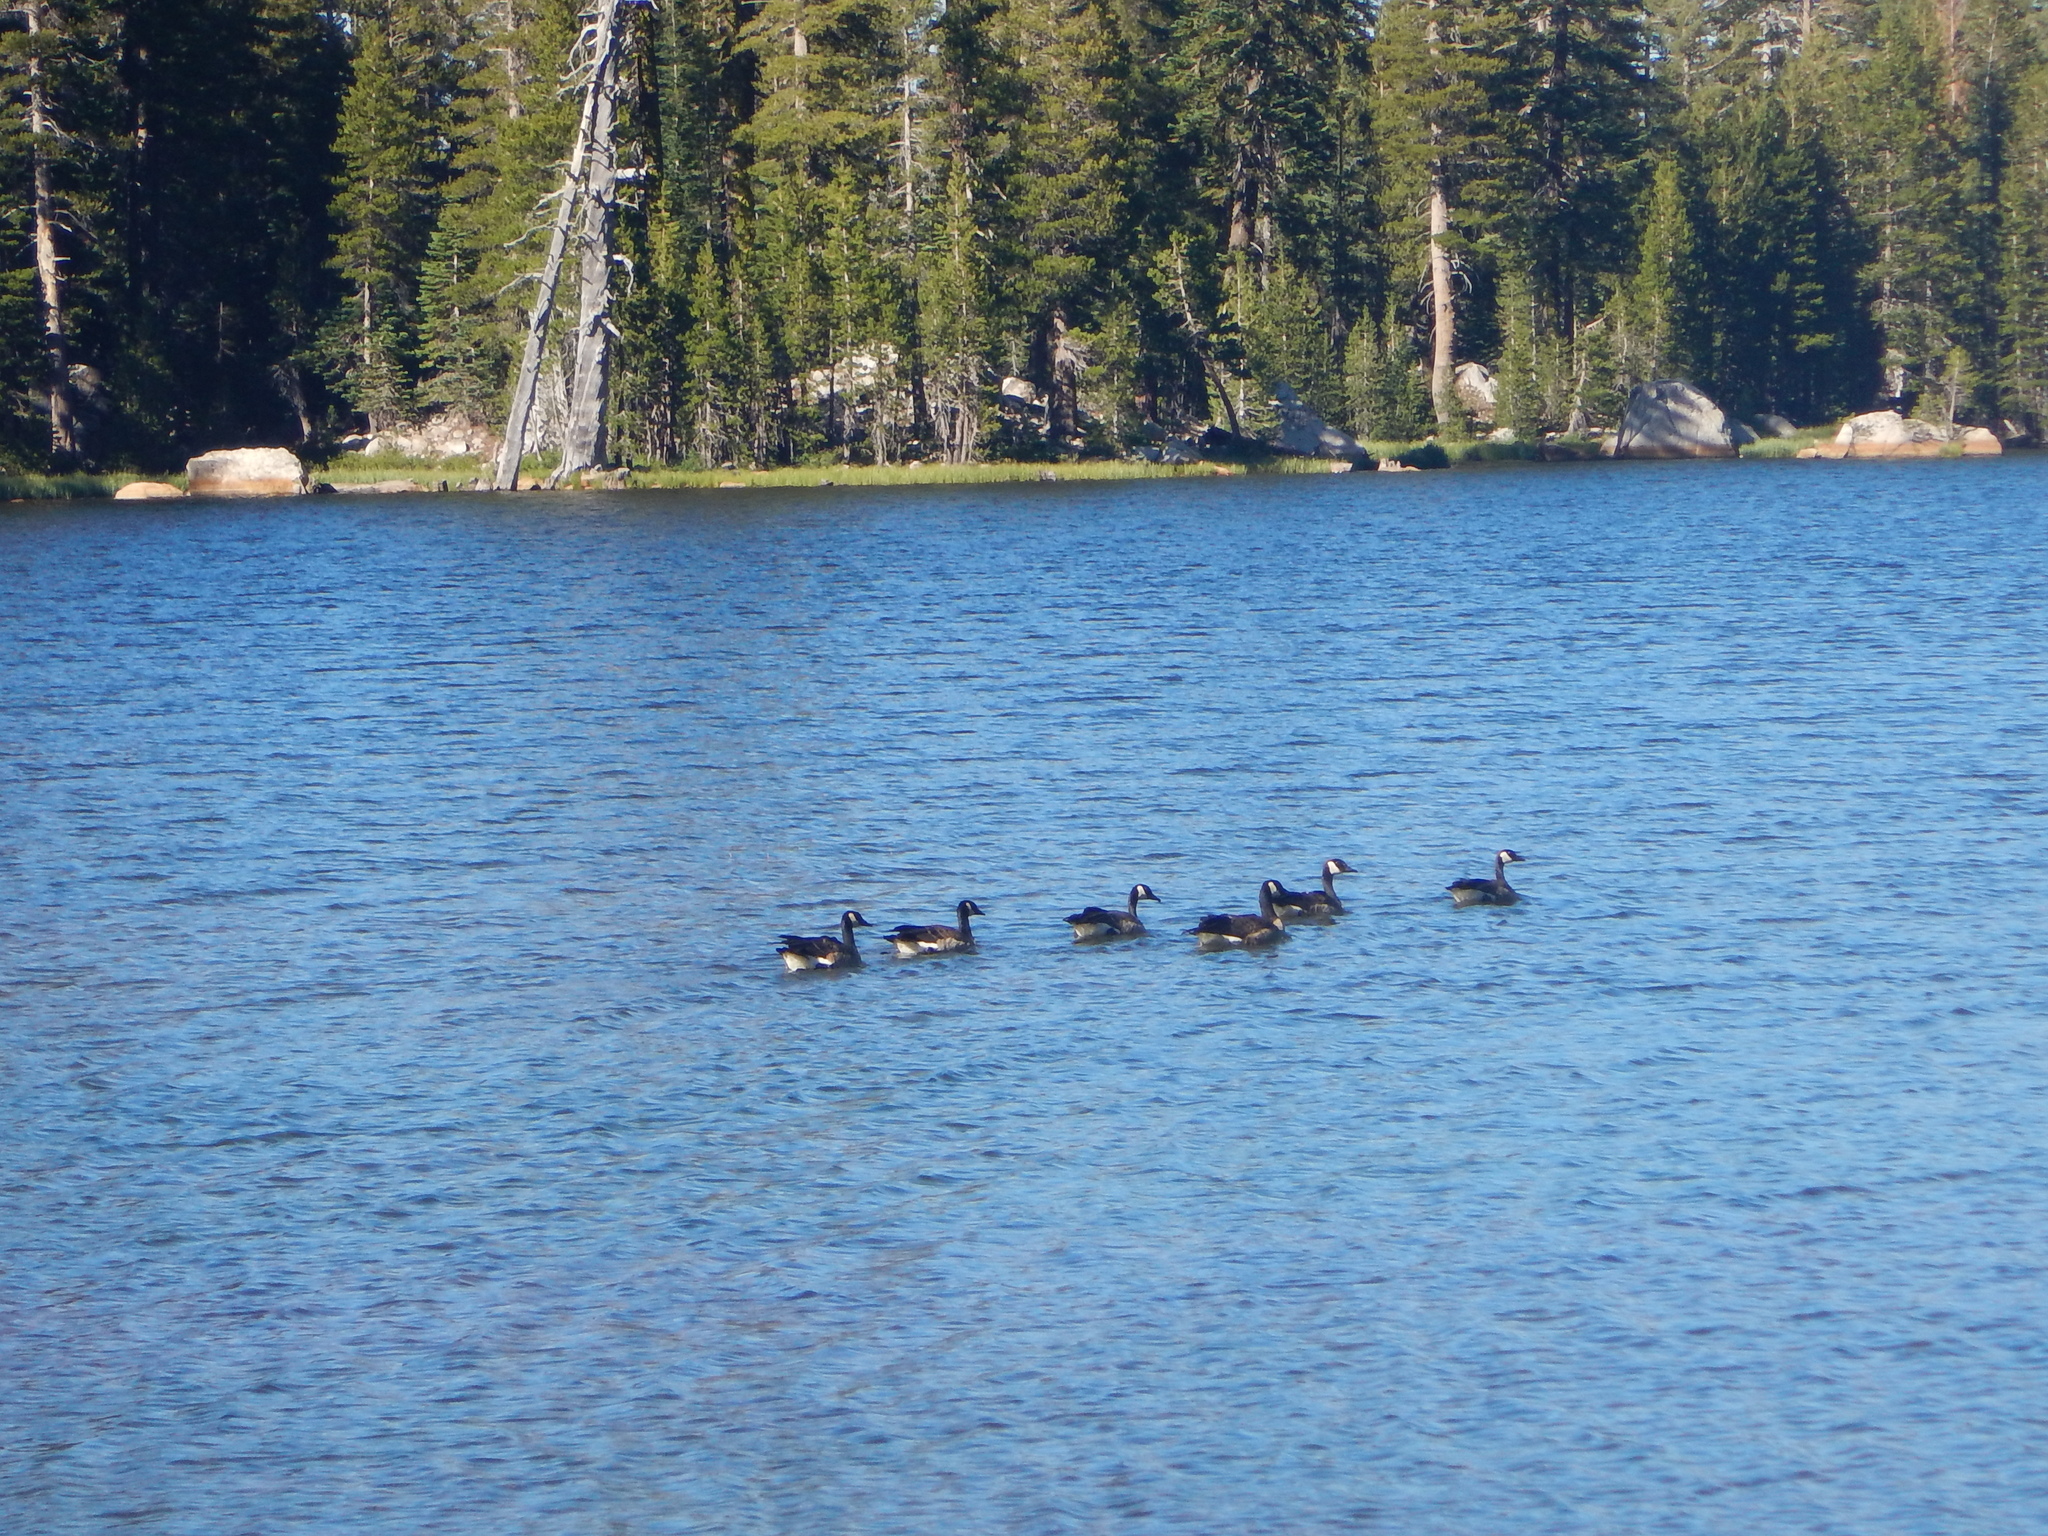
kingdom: Animalia
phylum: Chordata
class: Aves
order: Anseriformes
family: Anatidae
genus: Branta
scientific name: Branta canadensis
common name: Canada goose
